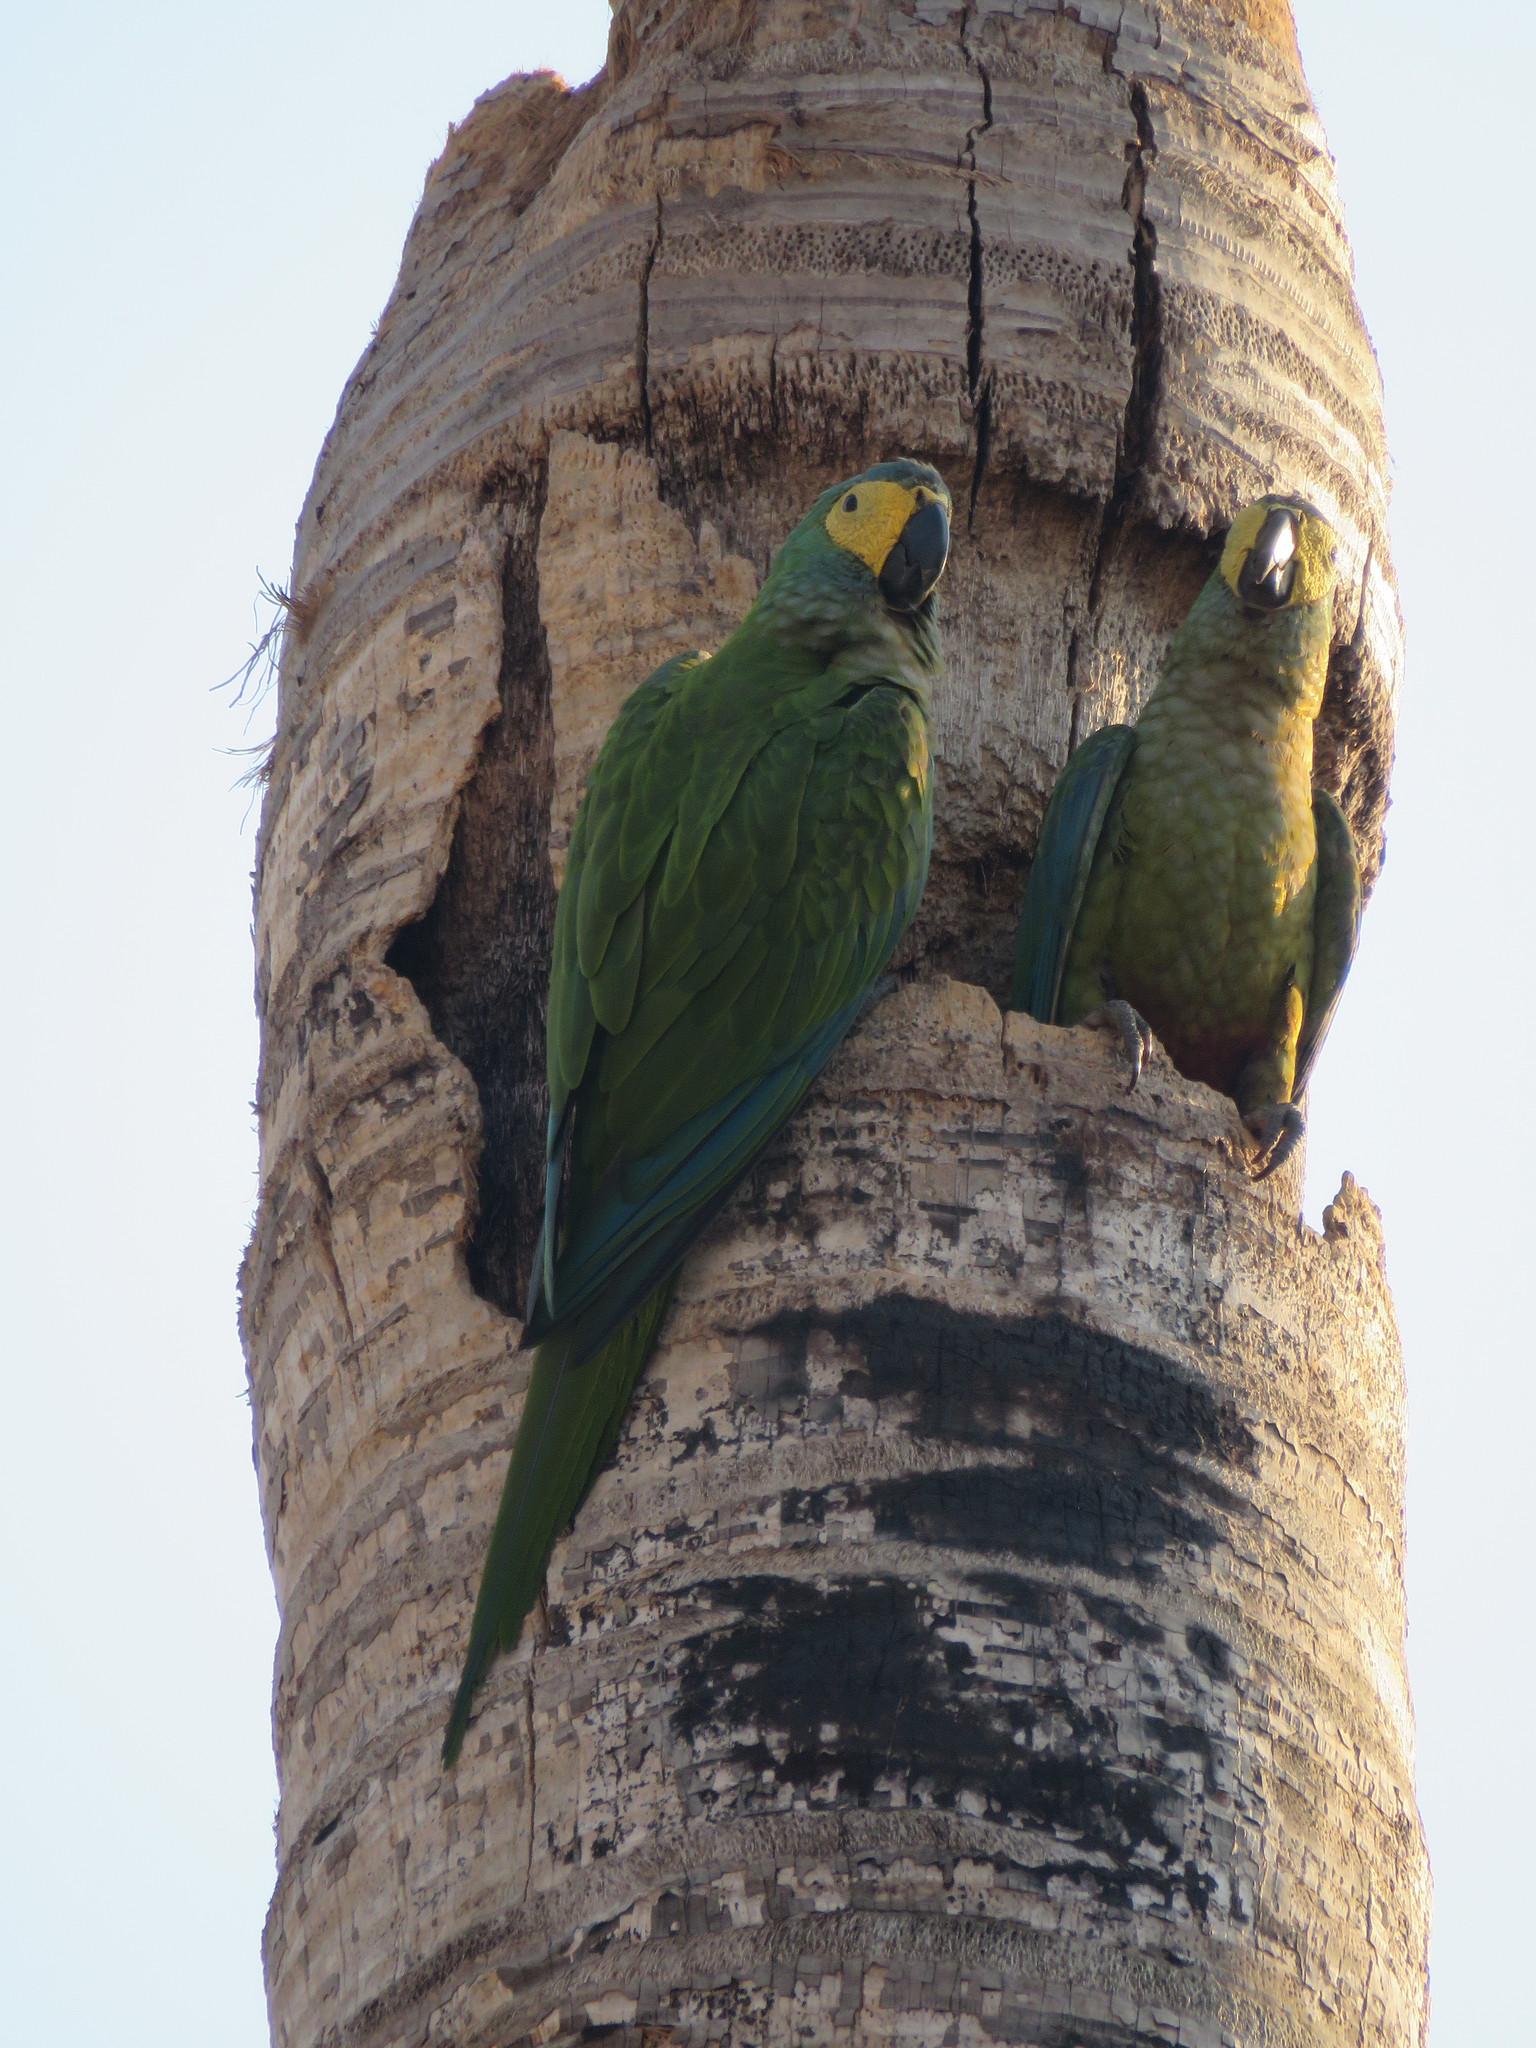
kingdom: Animalia
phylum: Chordata
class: Aves
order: Psittaciformes
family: Psittacidae
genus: Orthopsittaca
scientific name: Orthopsittaca manilata
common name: Red-bellied macaw
